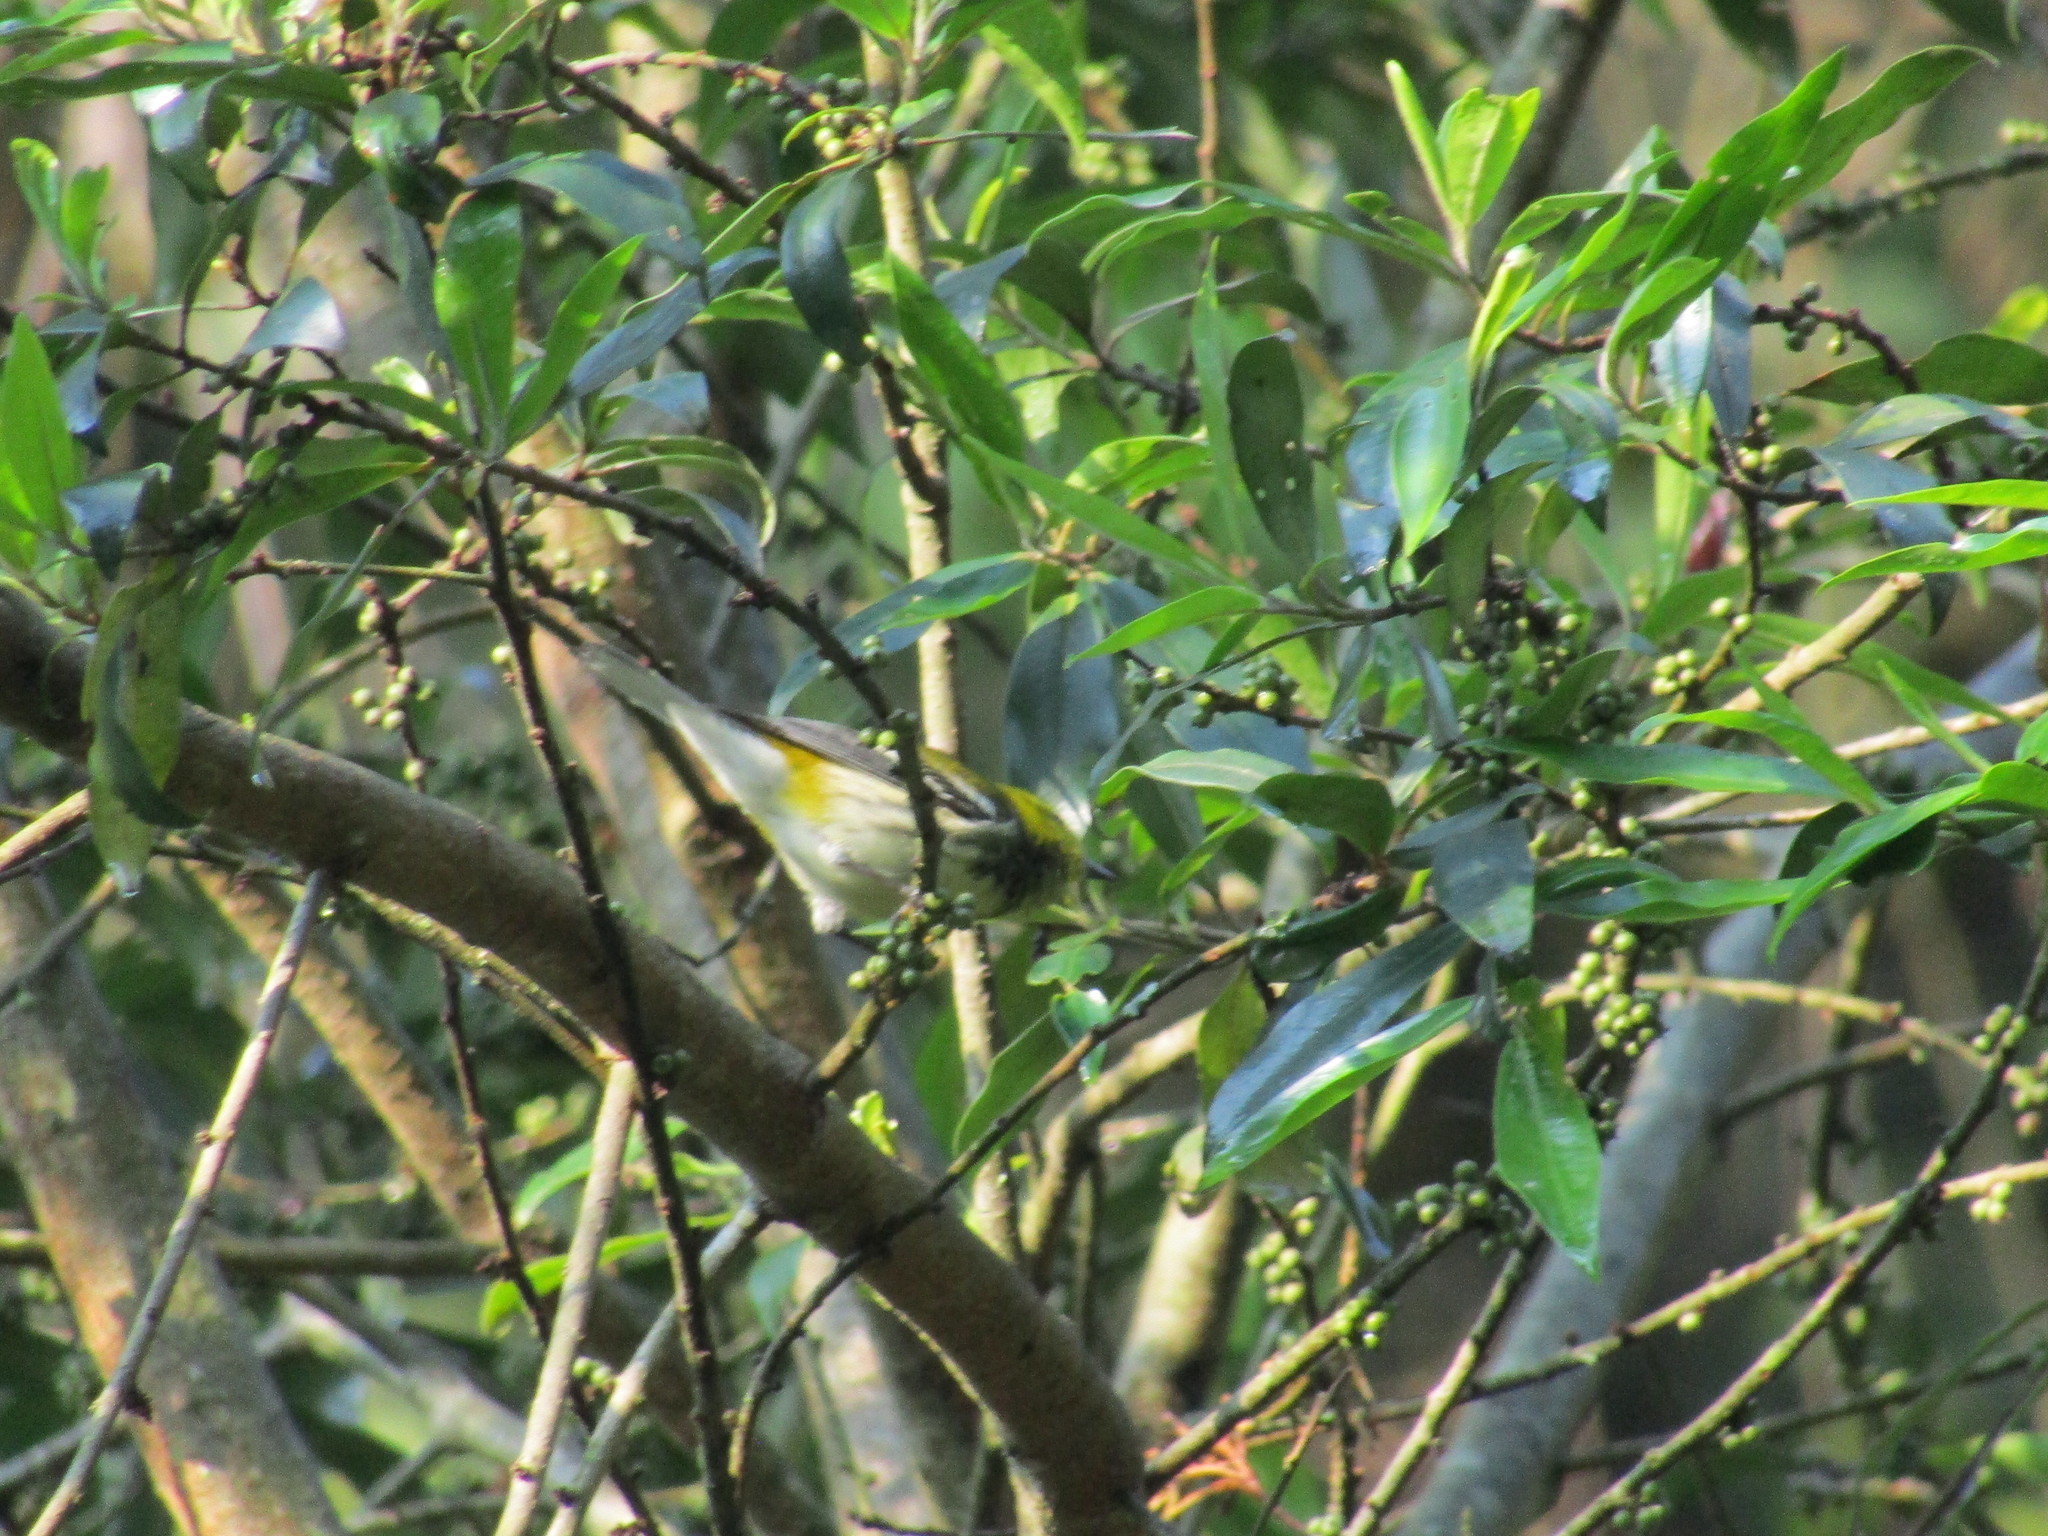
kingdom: Animalia
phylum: Chordata
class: Aves
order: Passeriformes
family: Parulidae
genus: Setophaga
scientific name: Setophaga virens
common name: Black-throated green warbler
